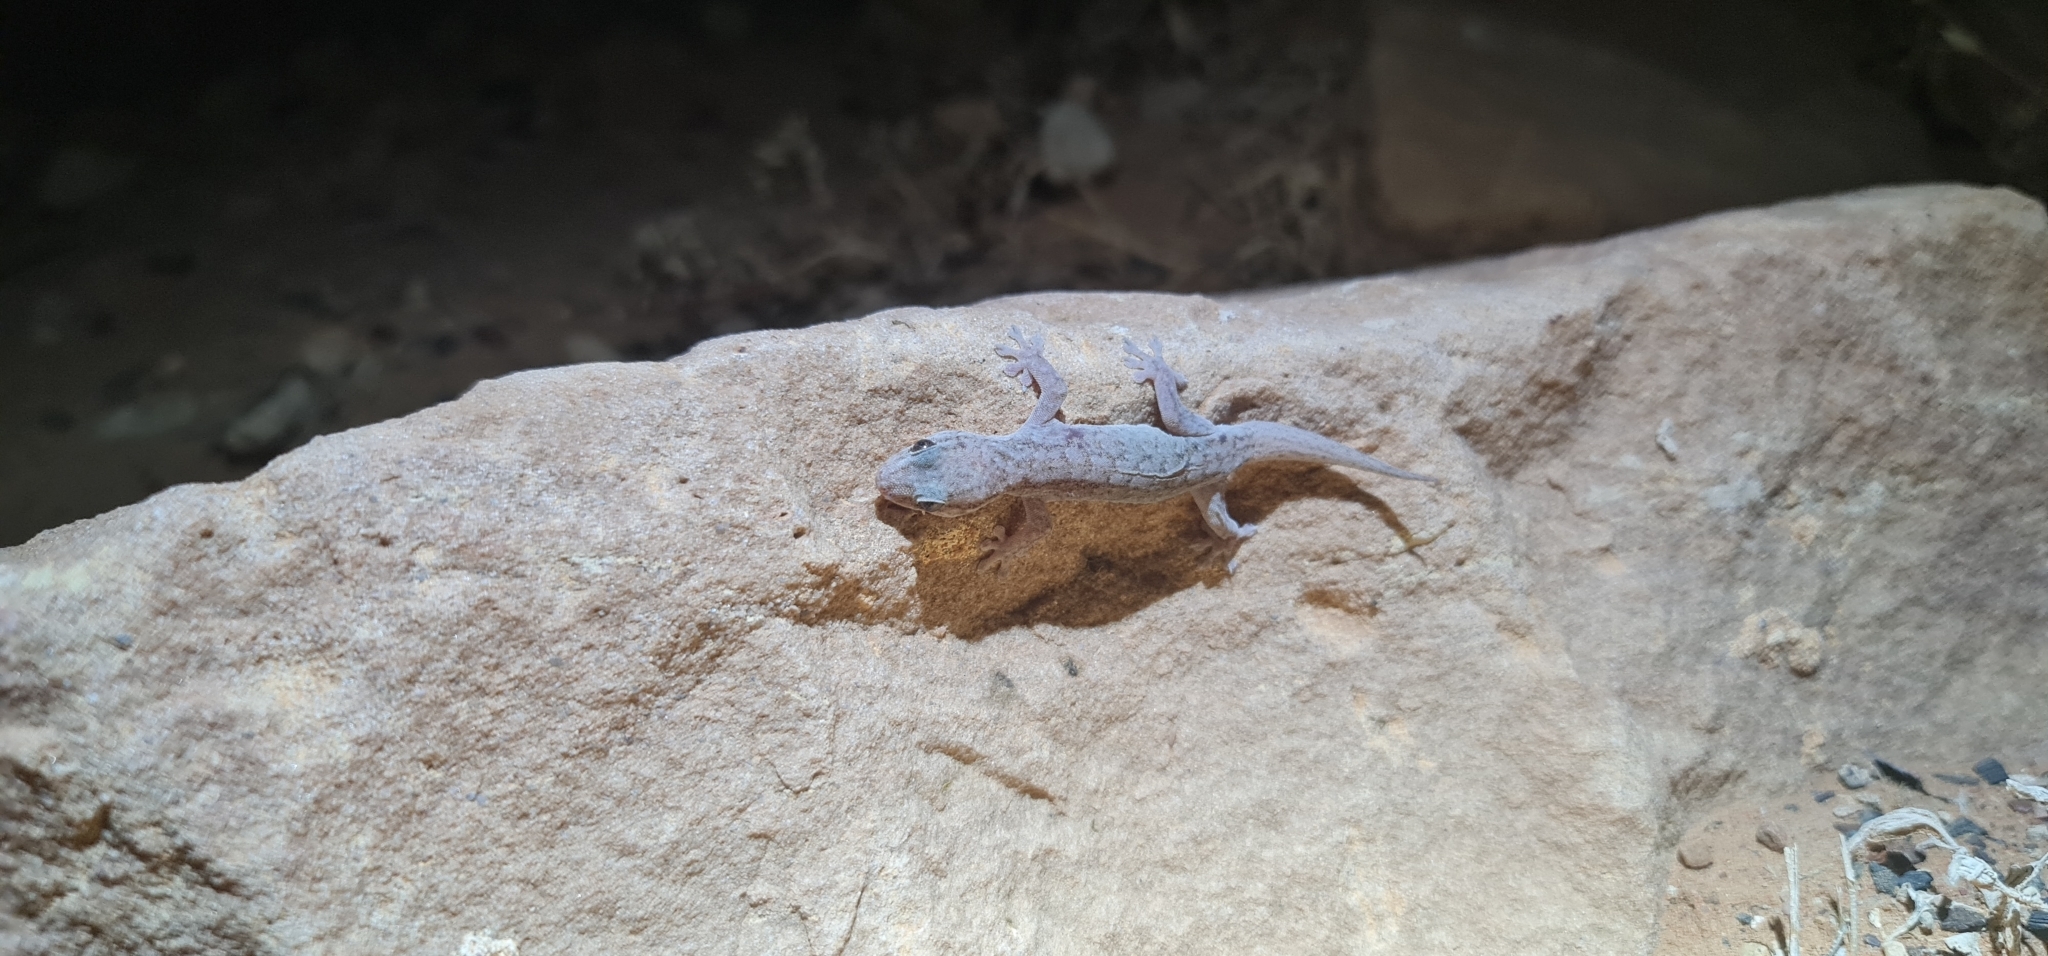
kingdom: Animalia
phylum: Chordata
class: Squamata
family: Gekkonidae
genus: Gehyra
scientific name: Gehyra versicolor
